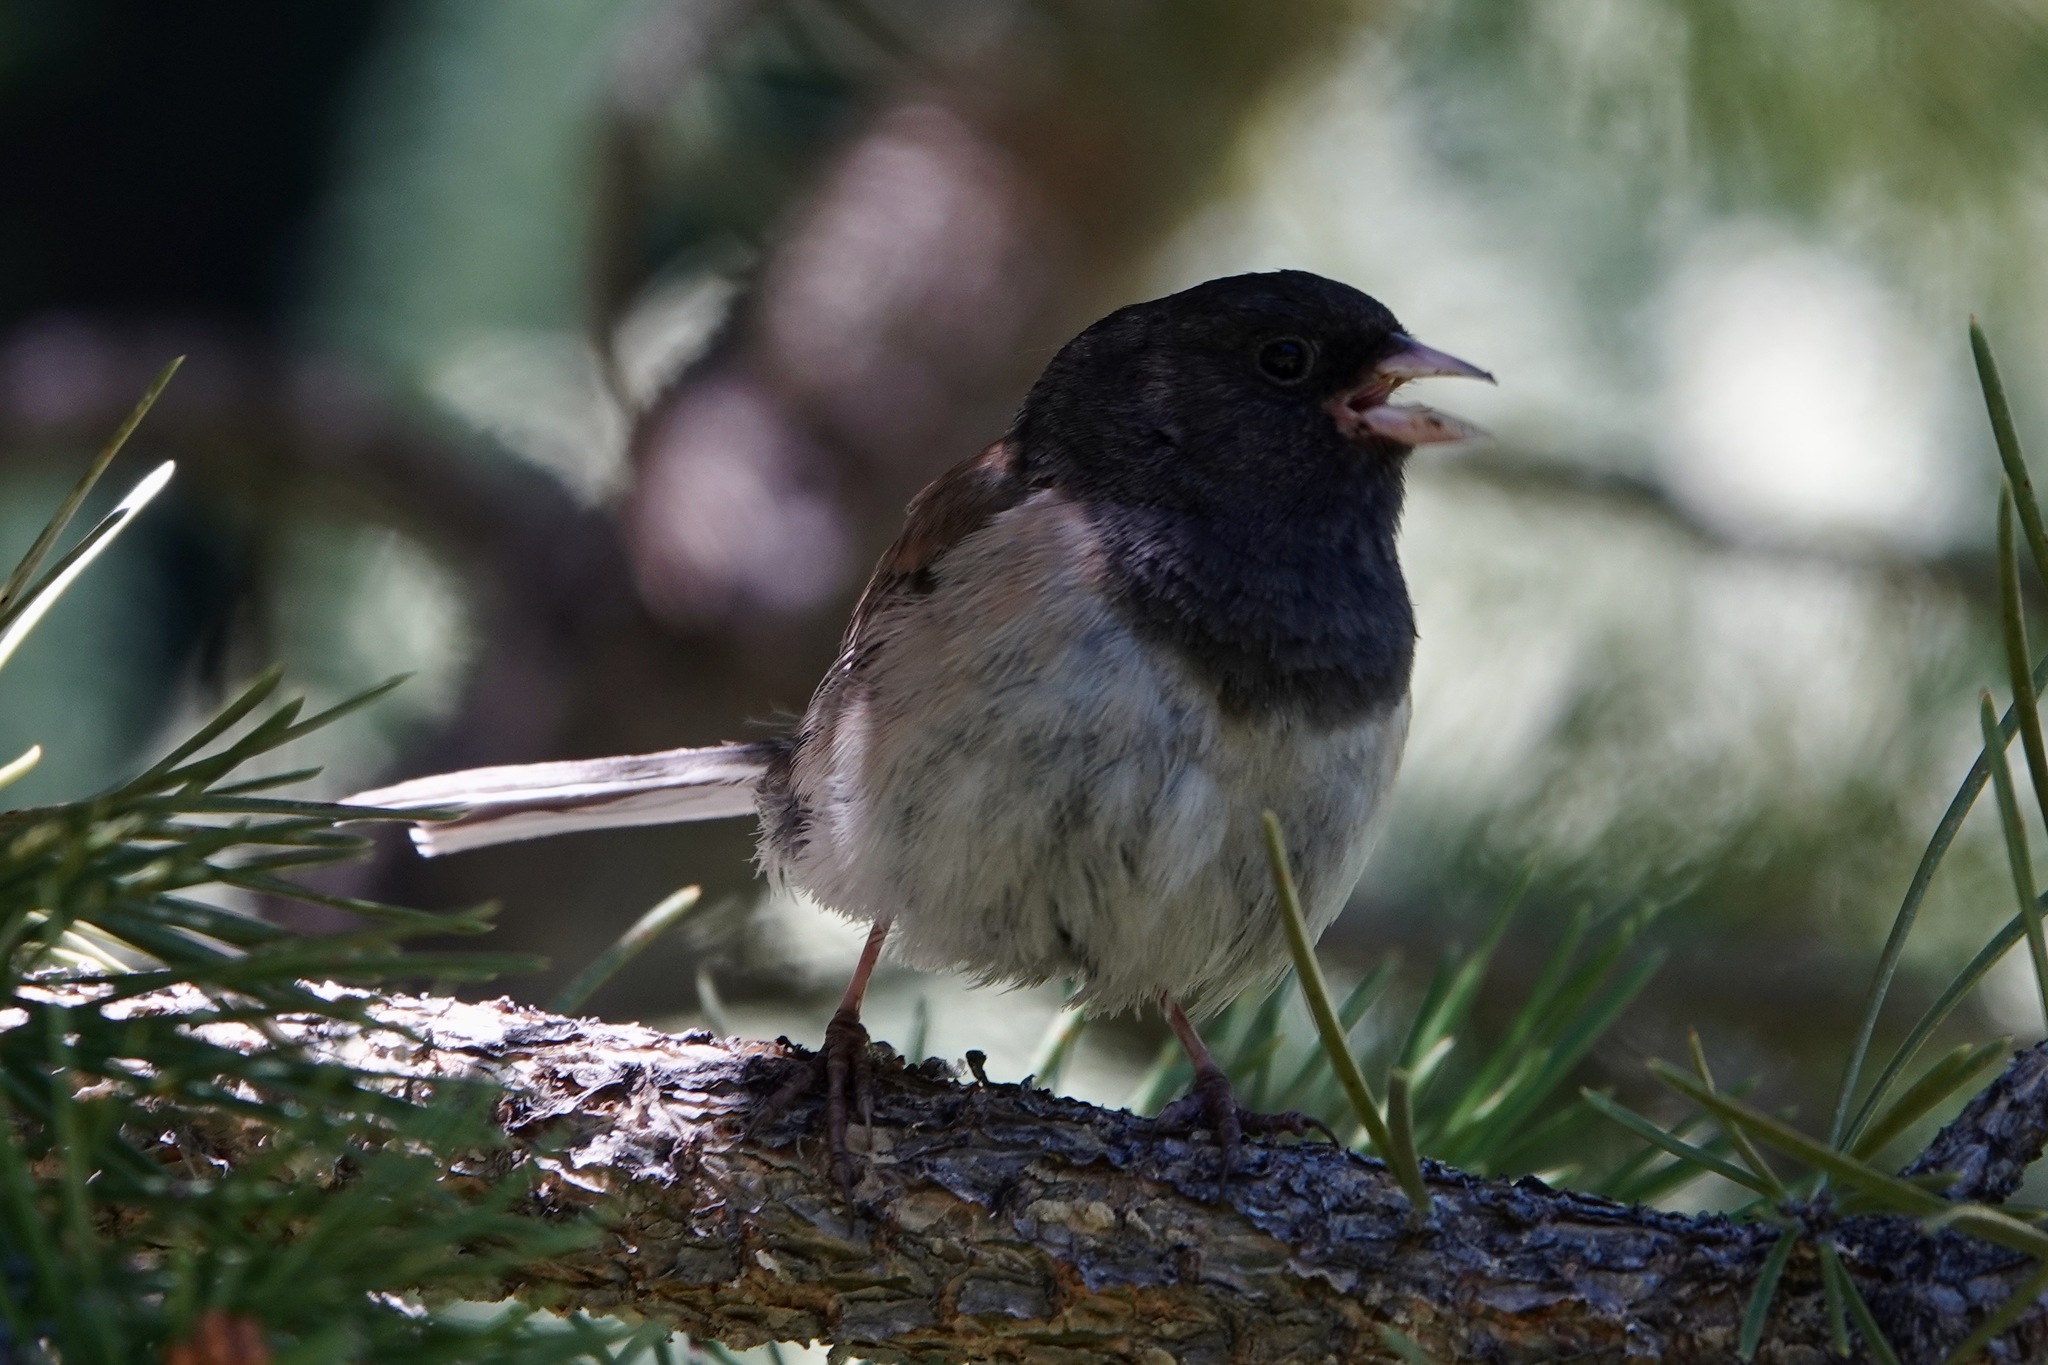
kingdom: Animalia
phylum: Chordata
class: Aves
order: Passeriformes
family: Passerellidae
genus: Junco
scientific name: Junco hyemalis
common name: Dark-eyed junco
